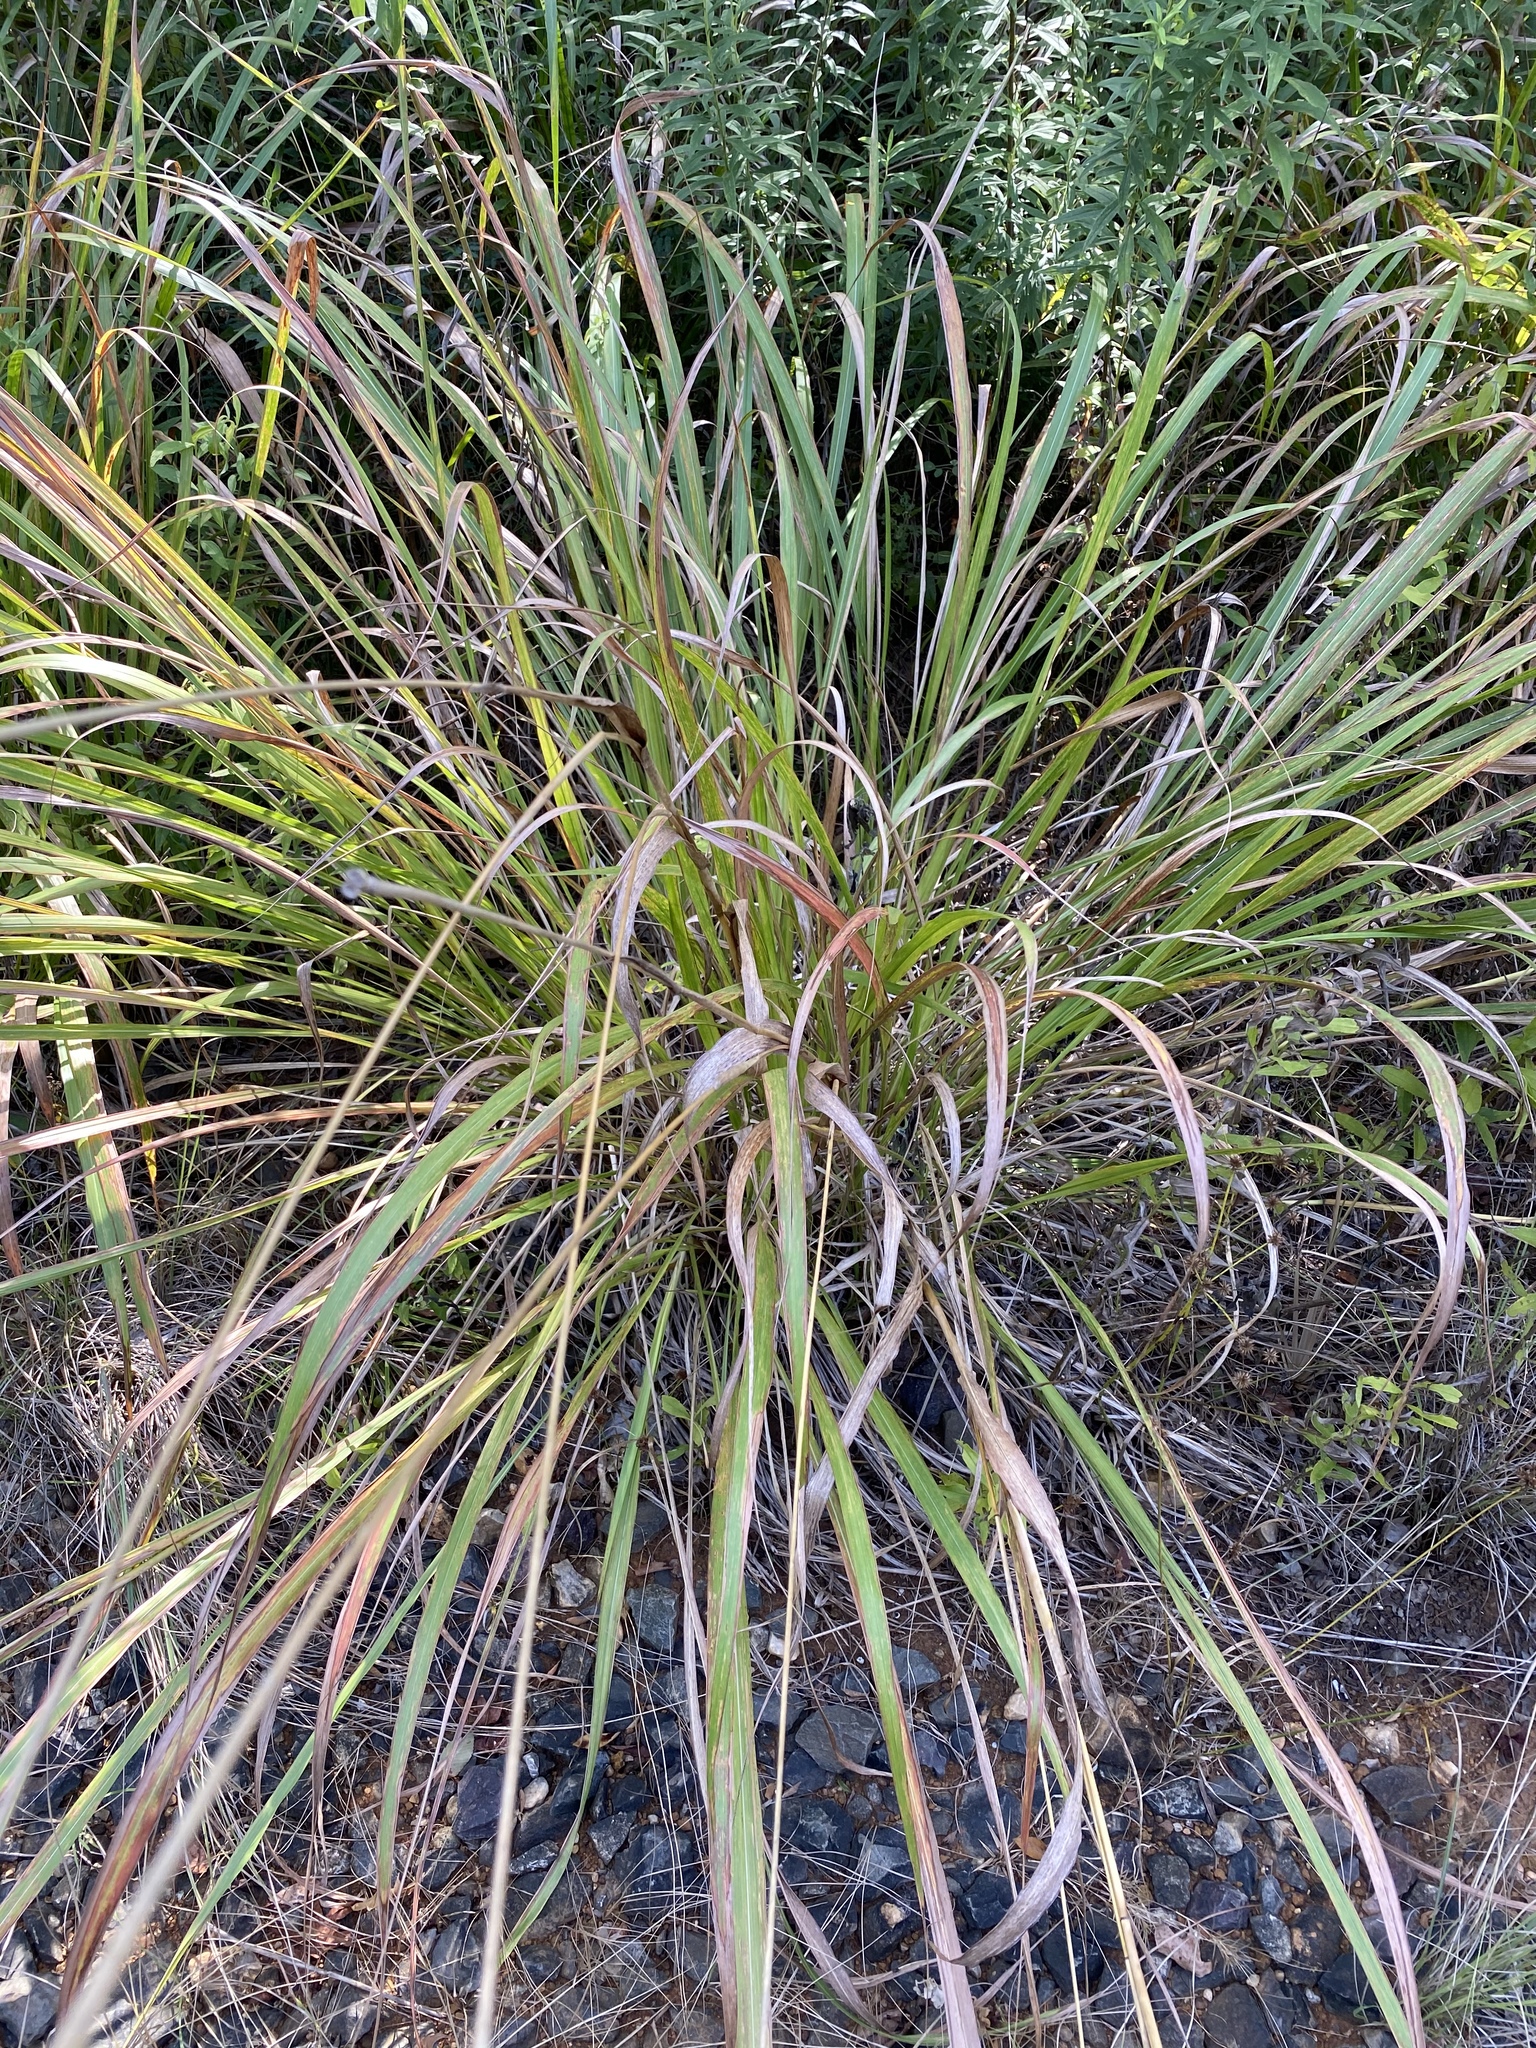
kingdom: Plantae
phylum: Tracheophyta
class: Liliopsida
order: Poales
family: Poaceae
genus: Tripsacum
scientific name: Tripsacum dactyloides
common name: Buffalo-grass
